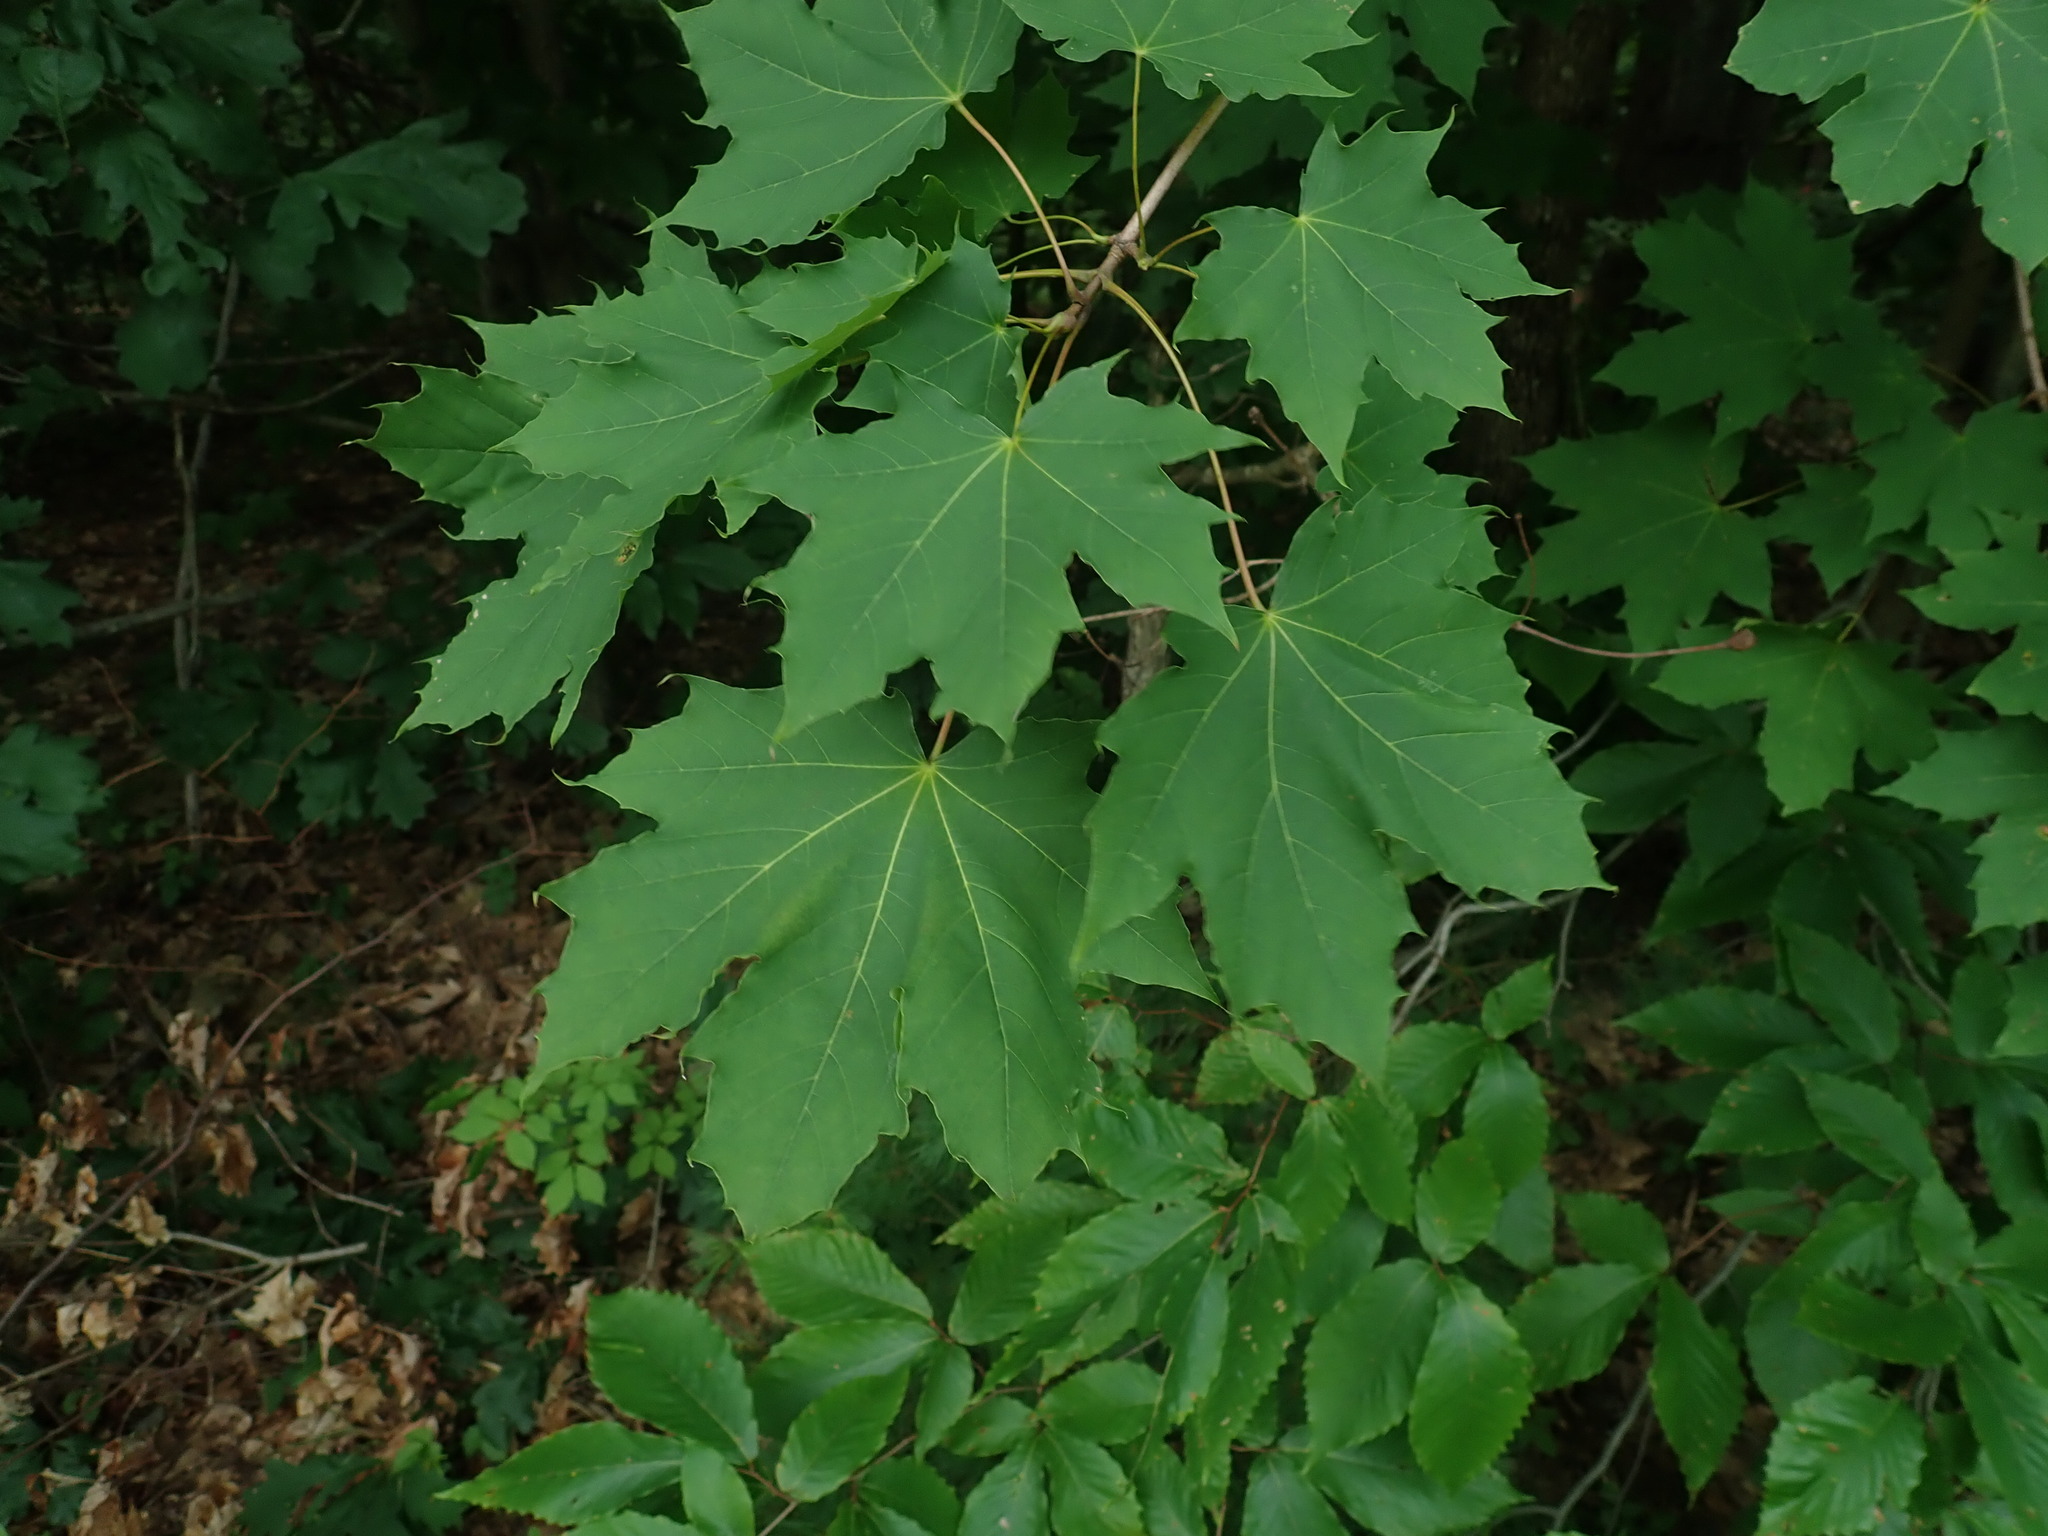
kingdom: Plantae
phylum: Tracheophyta
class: Magnoliopsida
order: Sapindales
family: Sapindaceae
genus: Acer
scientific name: Acer platanoides
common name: Norway maple
